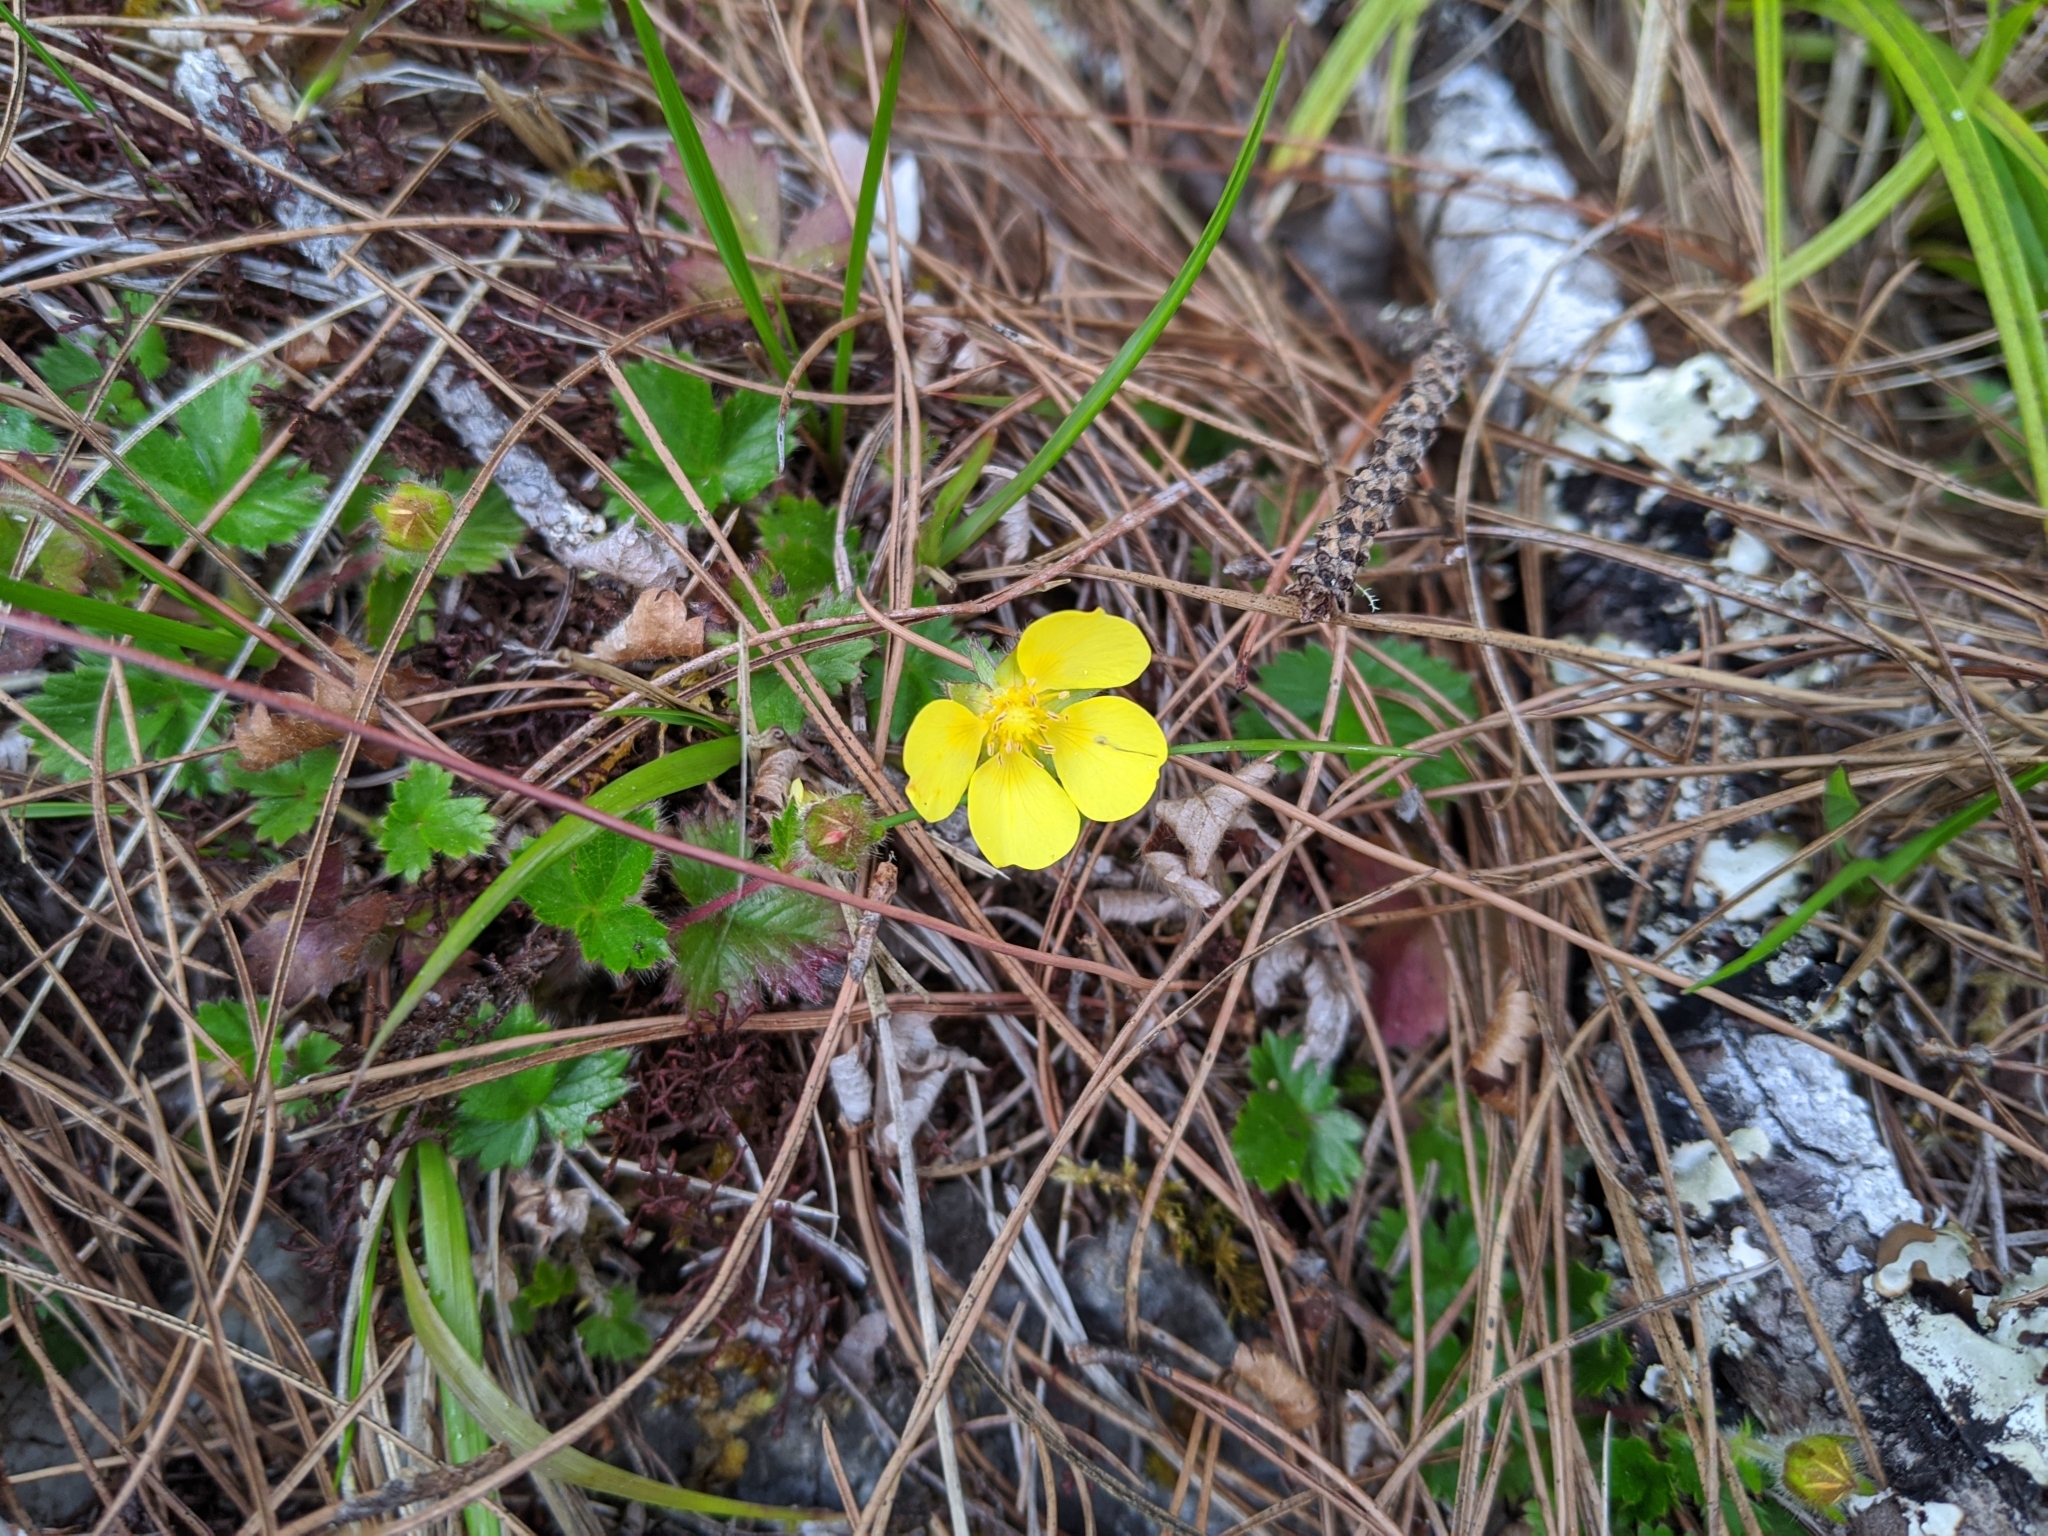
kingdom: Plantae
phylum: Tracheophyta
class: Magnoliopsida
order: Rosales
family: Rosaceae
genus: Potentilla
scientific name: Potentilla matsumurae
